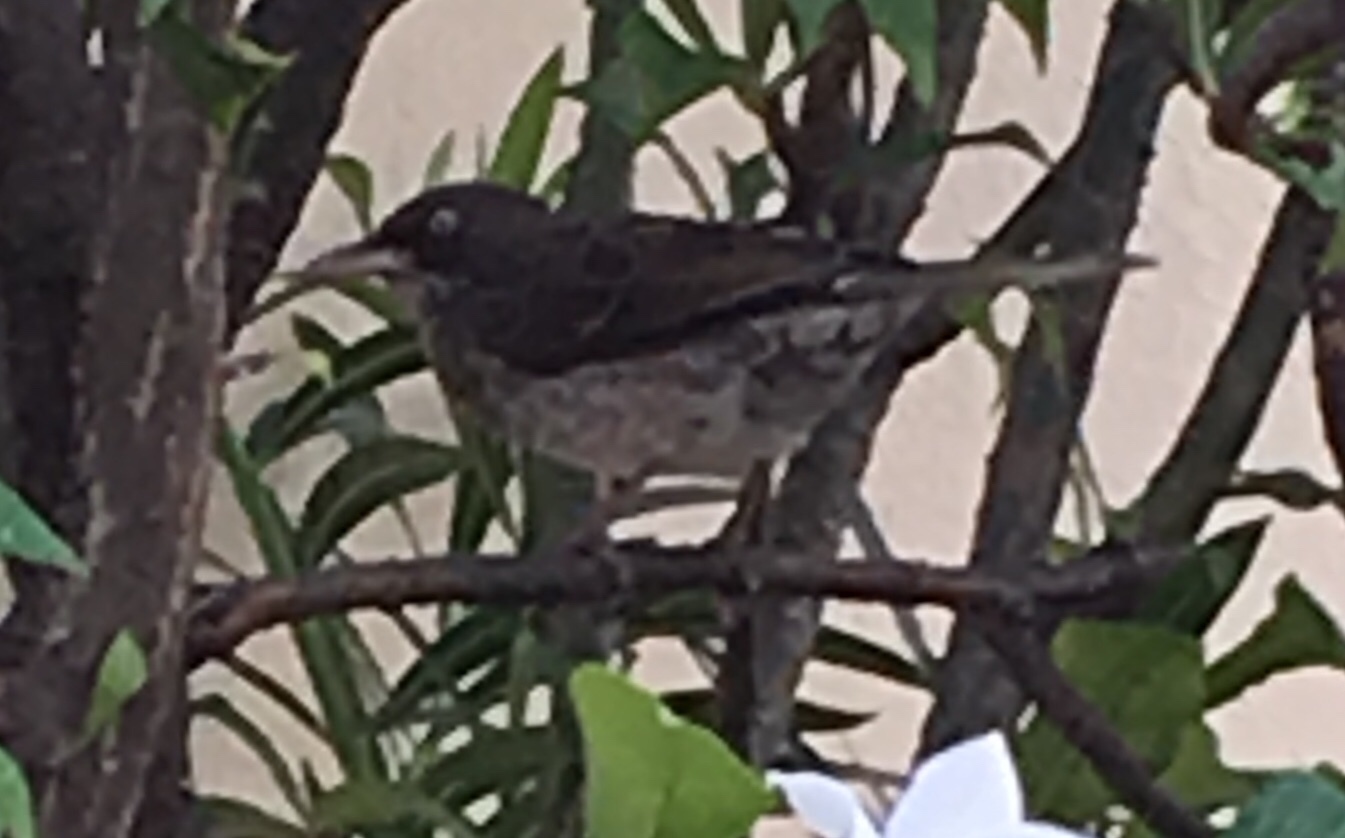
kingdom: Animalia
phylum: Chordata
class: Aves
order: Passeriformes
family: Mimidae
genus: Margarops
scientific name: Margarops fuscatus
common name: Pearly-eyed thrasher
